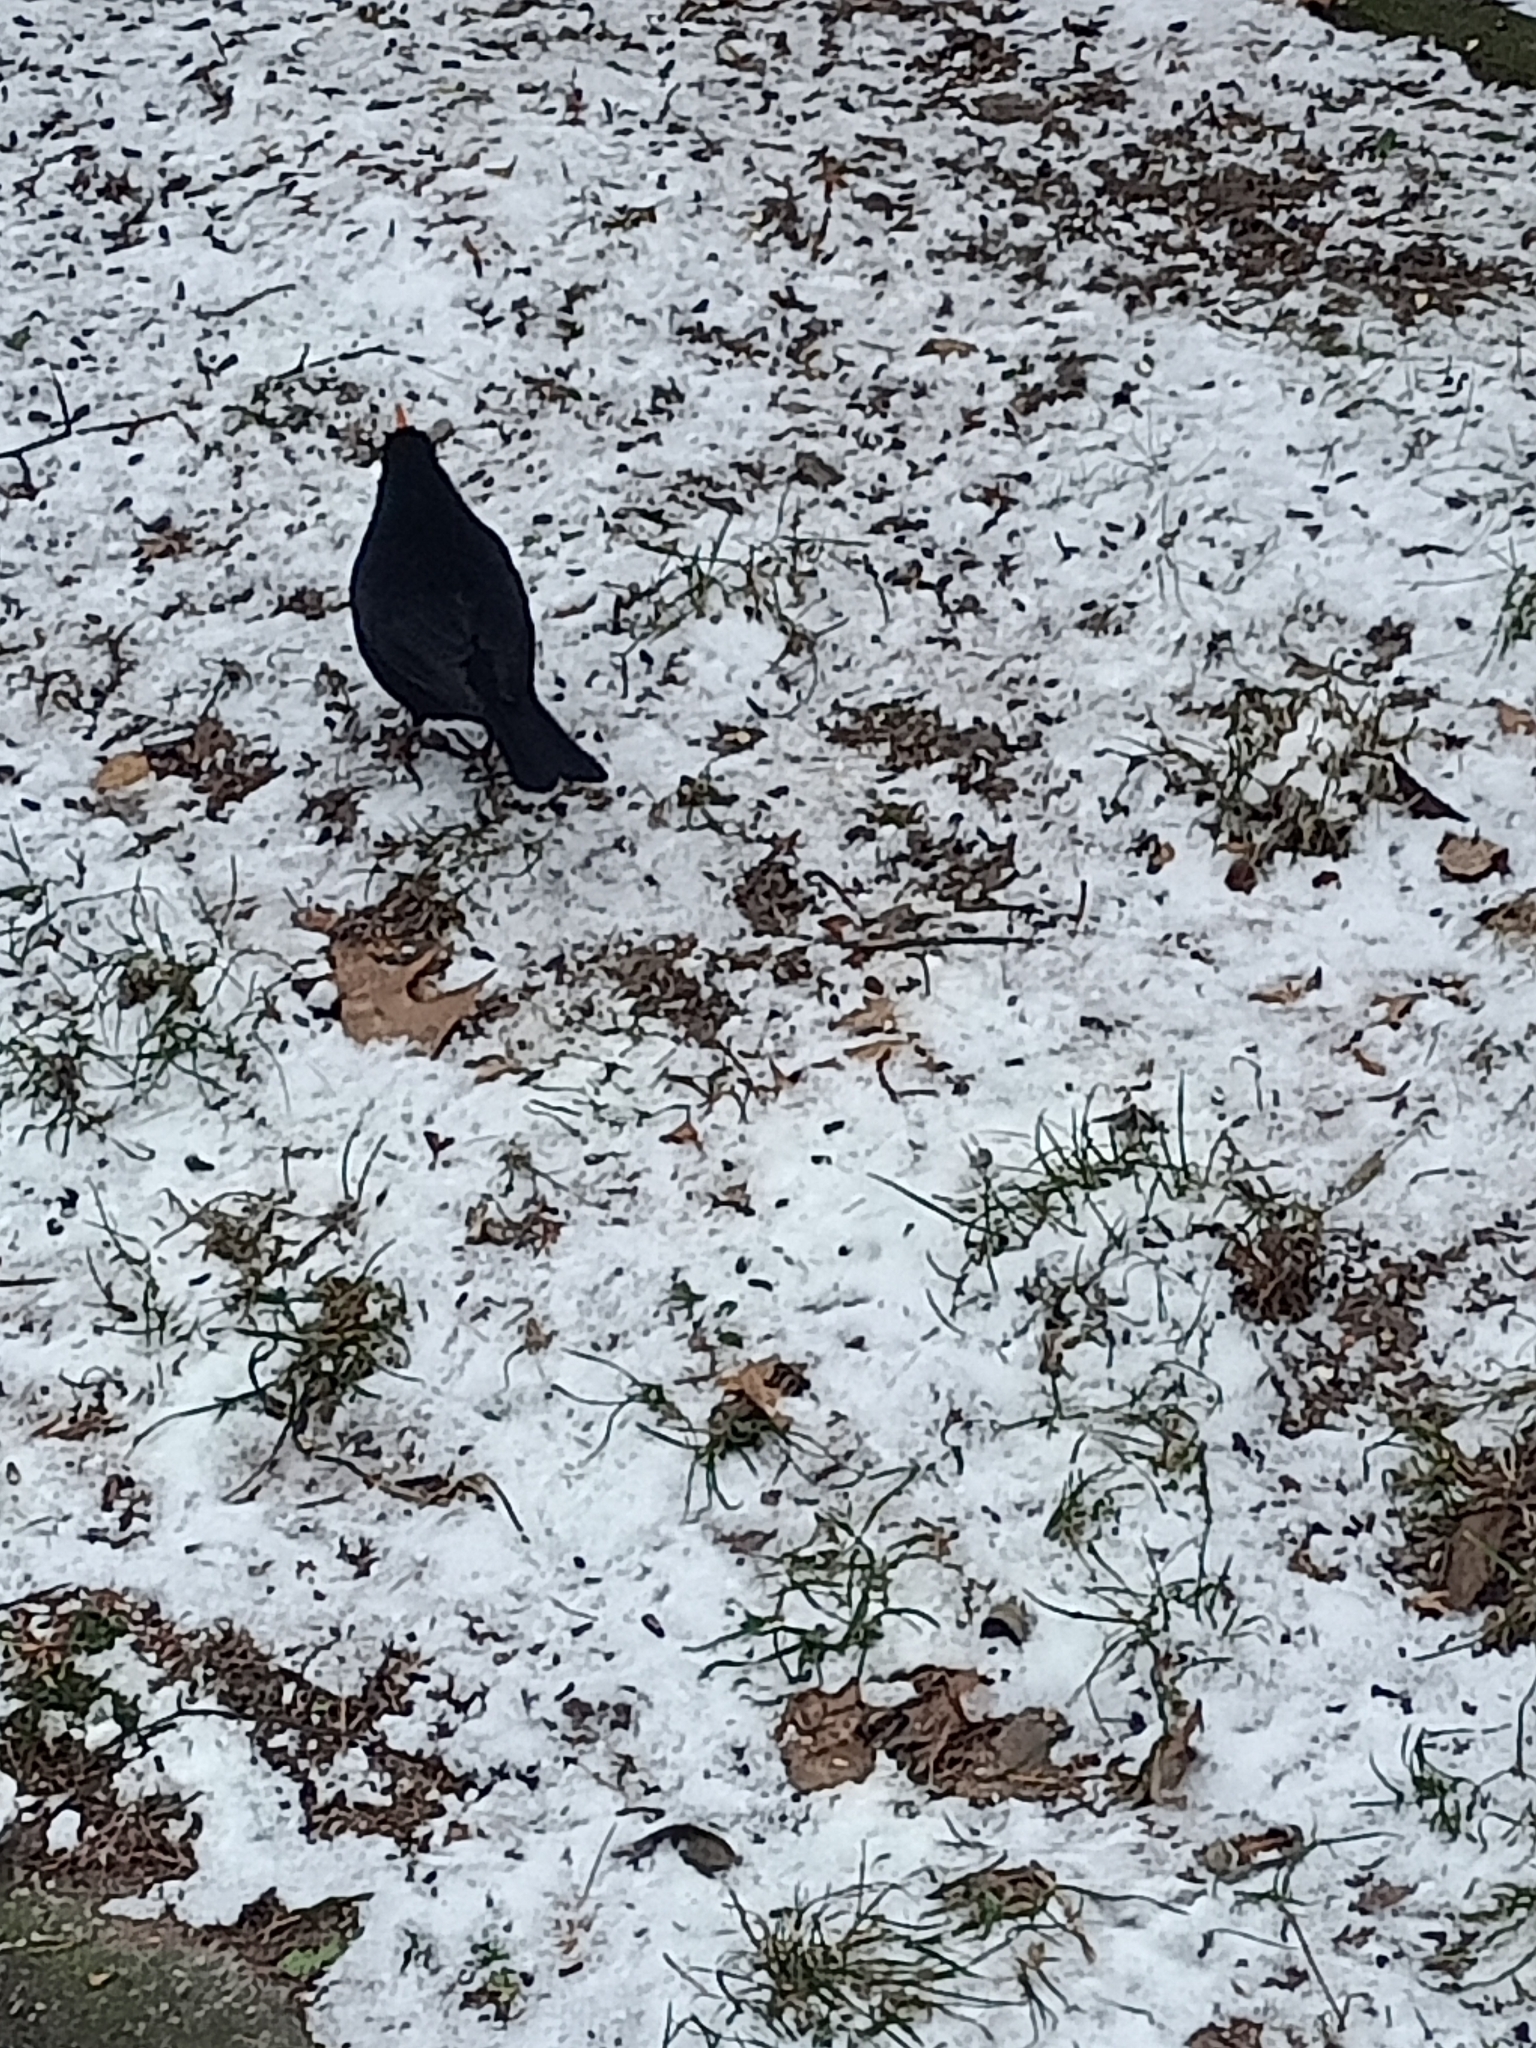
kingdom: Animalia
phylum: Chordata
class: Aves
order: Passeriformes
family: Turdidae
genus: Turdus
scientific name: Turdus merula
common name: Common blackbird
